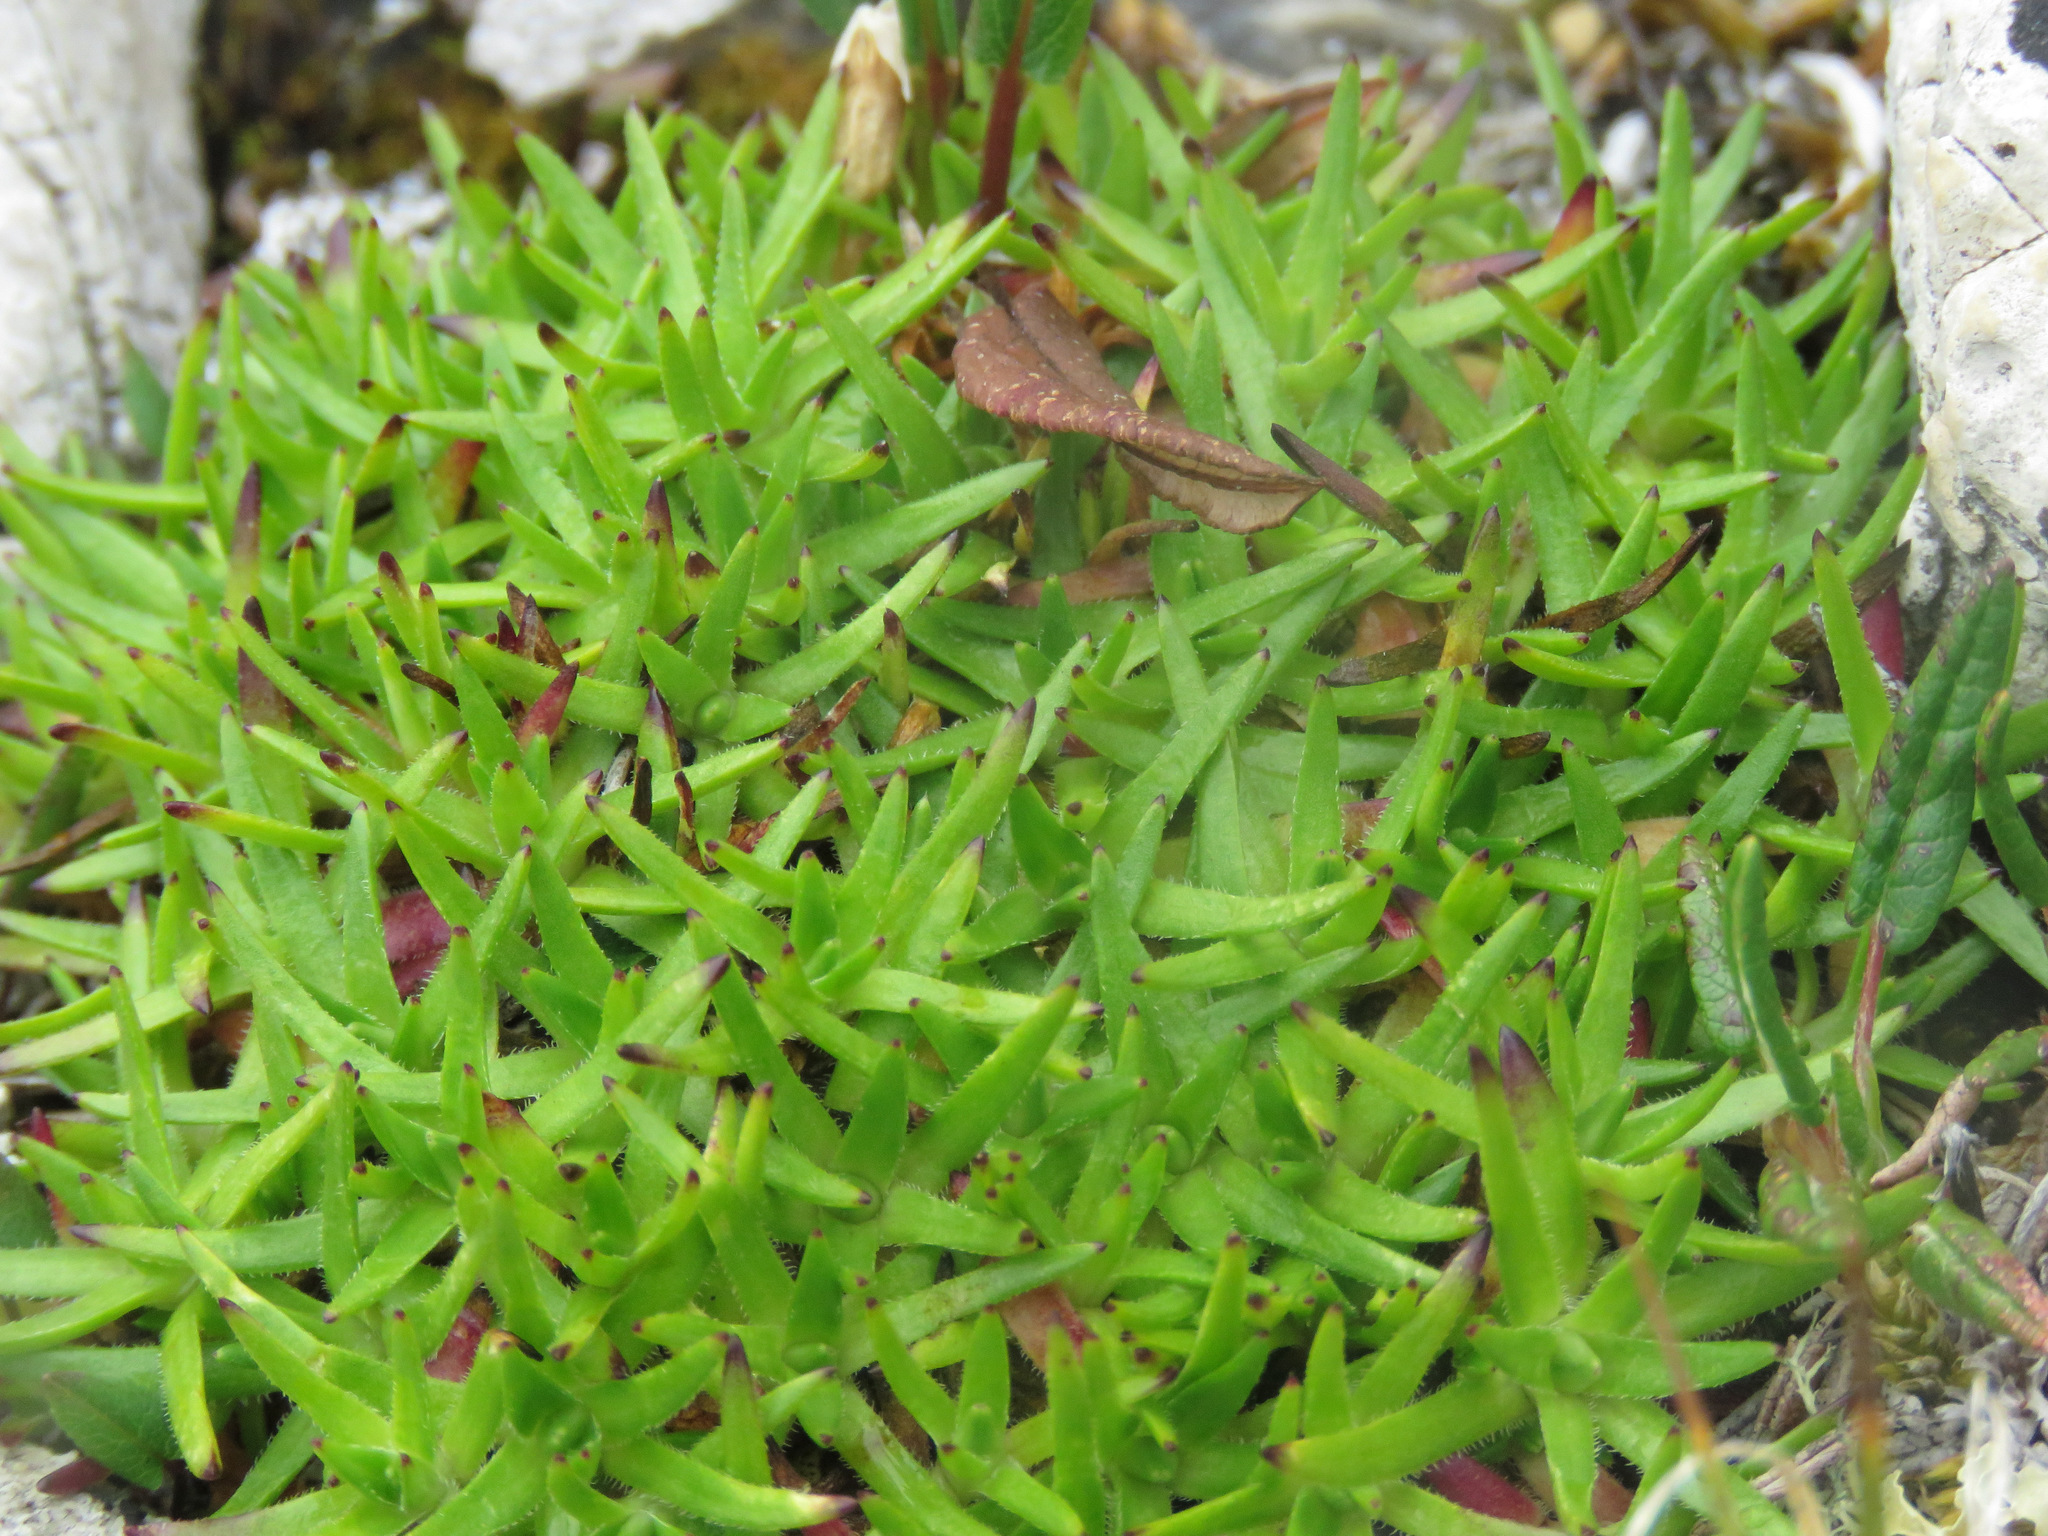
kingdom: Plantae
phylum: Tracheophyta
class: Magnoliopsida
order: Caryophyllales
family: Caryophyllaceae
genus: Silene
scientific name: Silene acaulis
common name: Moss campion
